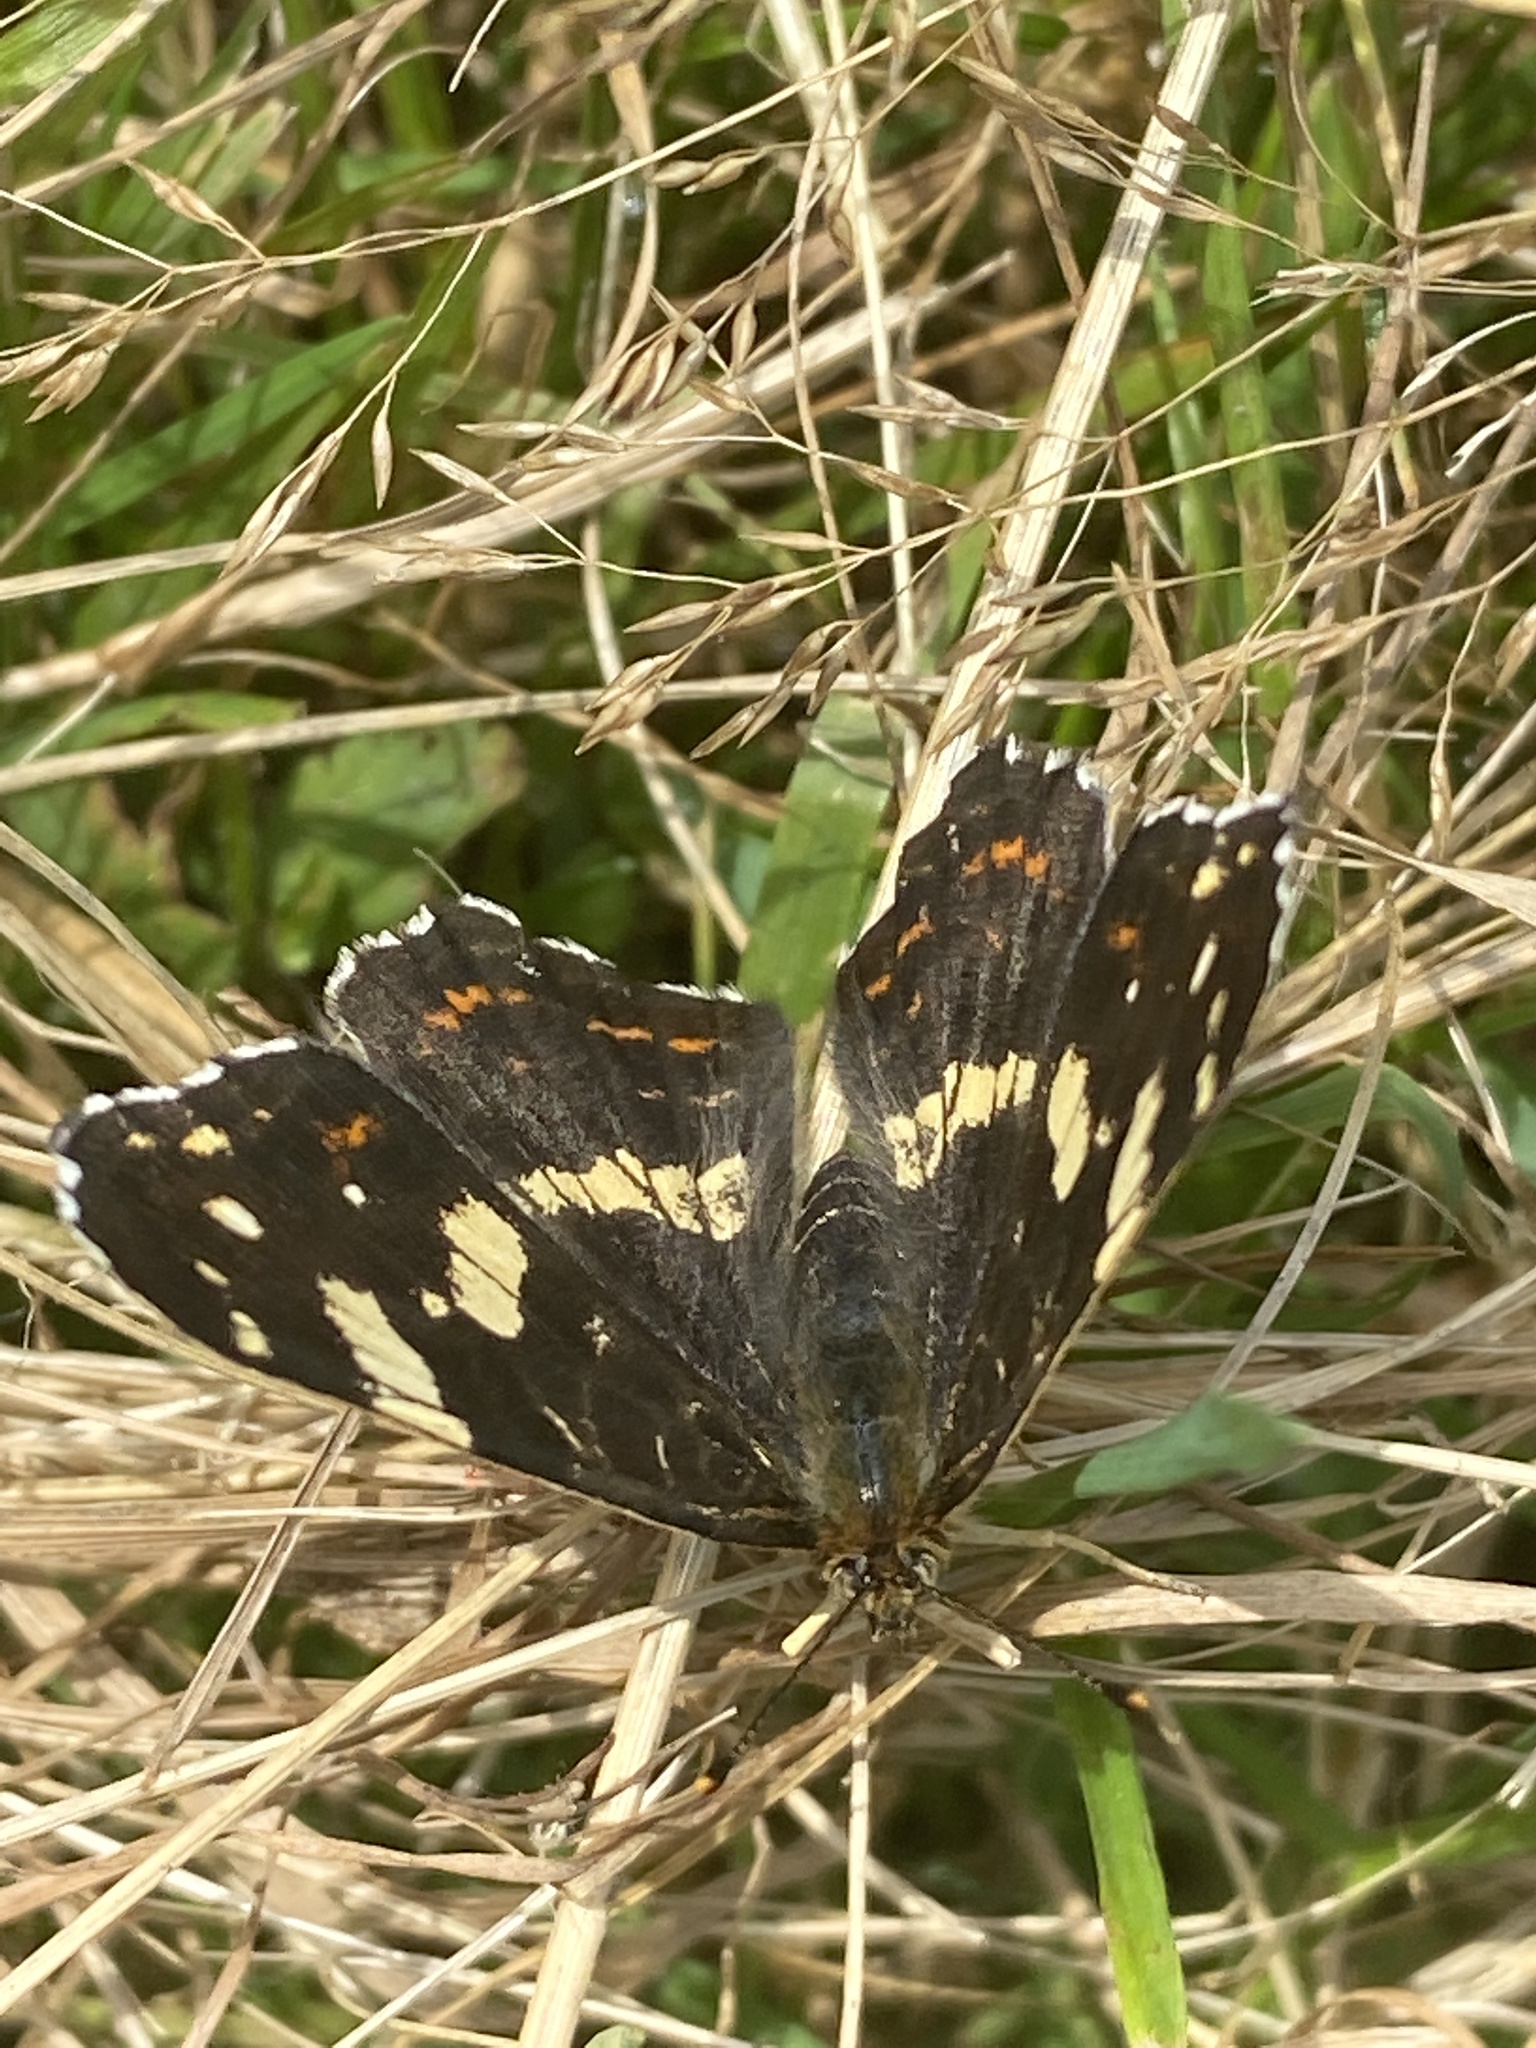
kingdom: Animalia
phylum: Arthropoda
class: Insecta
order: Lepidoptera
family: Nymphalidae
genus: Araschnia
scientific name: Araschnia levana
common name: Map butterfly
